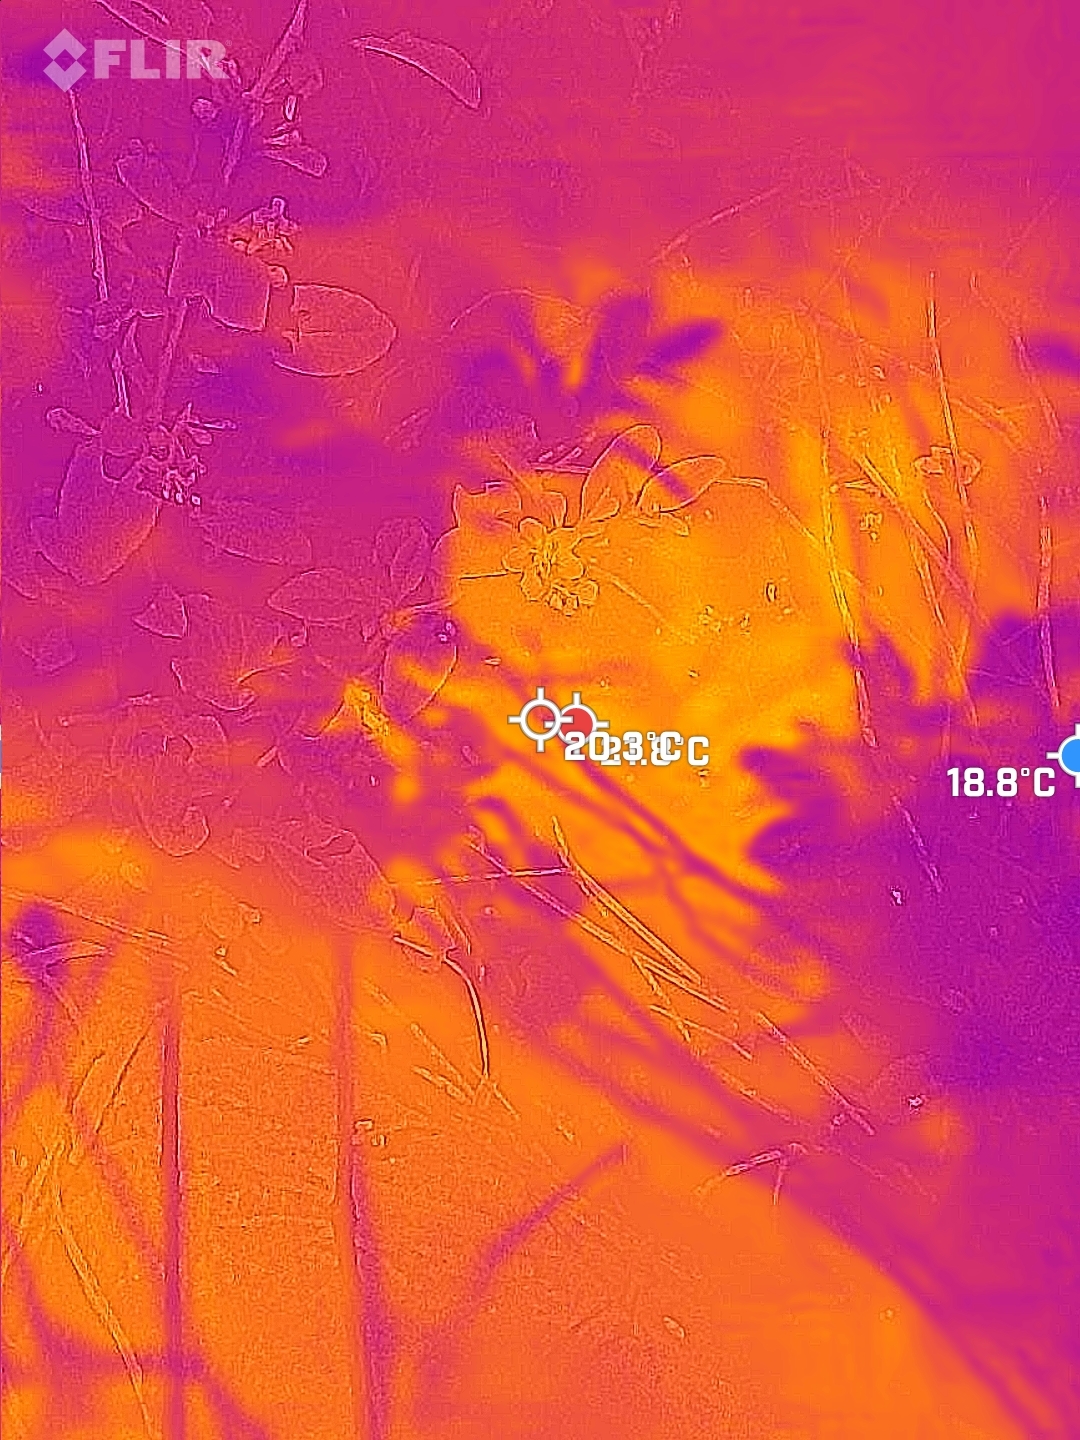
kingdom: Plantae
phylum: Tracheophyta
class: Magnoliopsida
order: Solanales
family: Solanaceae
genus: Lycium
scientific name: Lycium chinense
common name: Chinese teaplant
